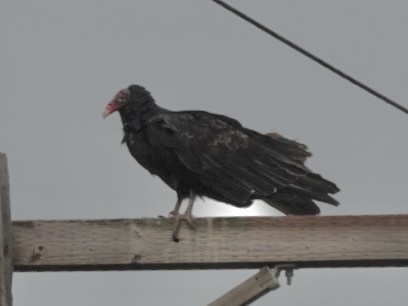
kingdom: Animalia
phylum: Chordata
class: Aves
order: Accipitriformes
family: Cathartidae
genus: Cathartes
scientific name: Cathartes aura
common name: Turkey vulture
